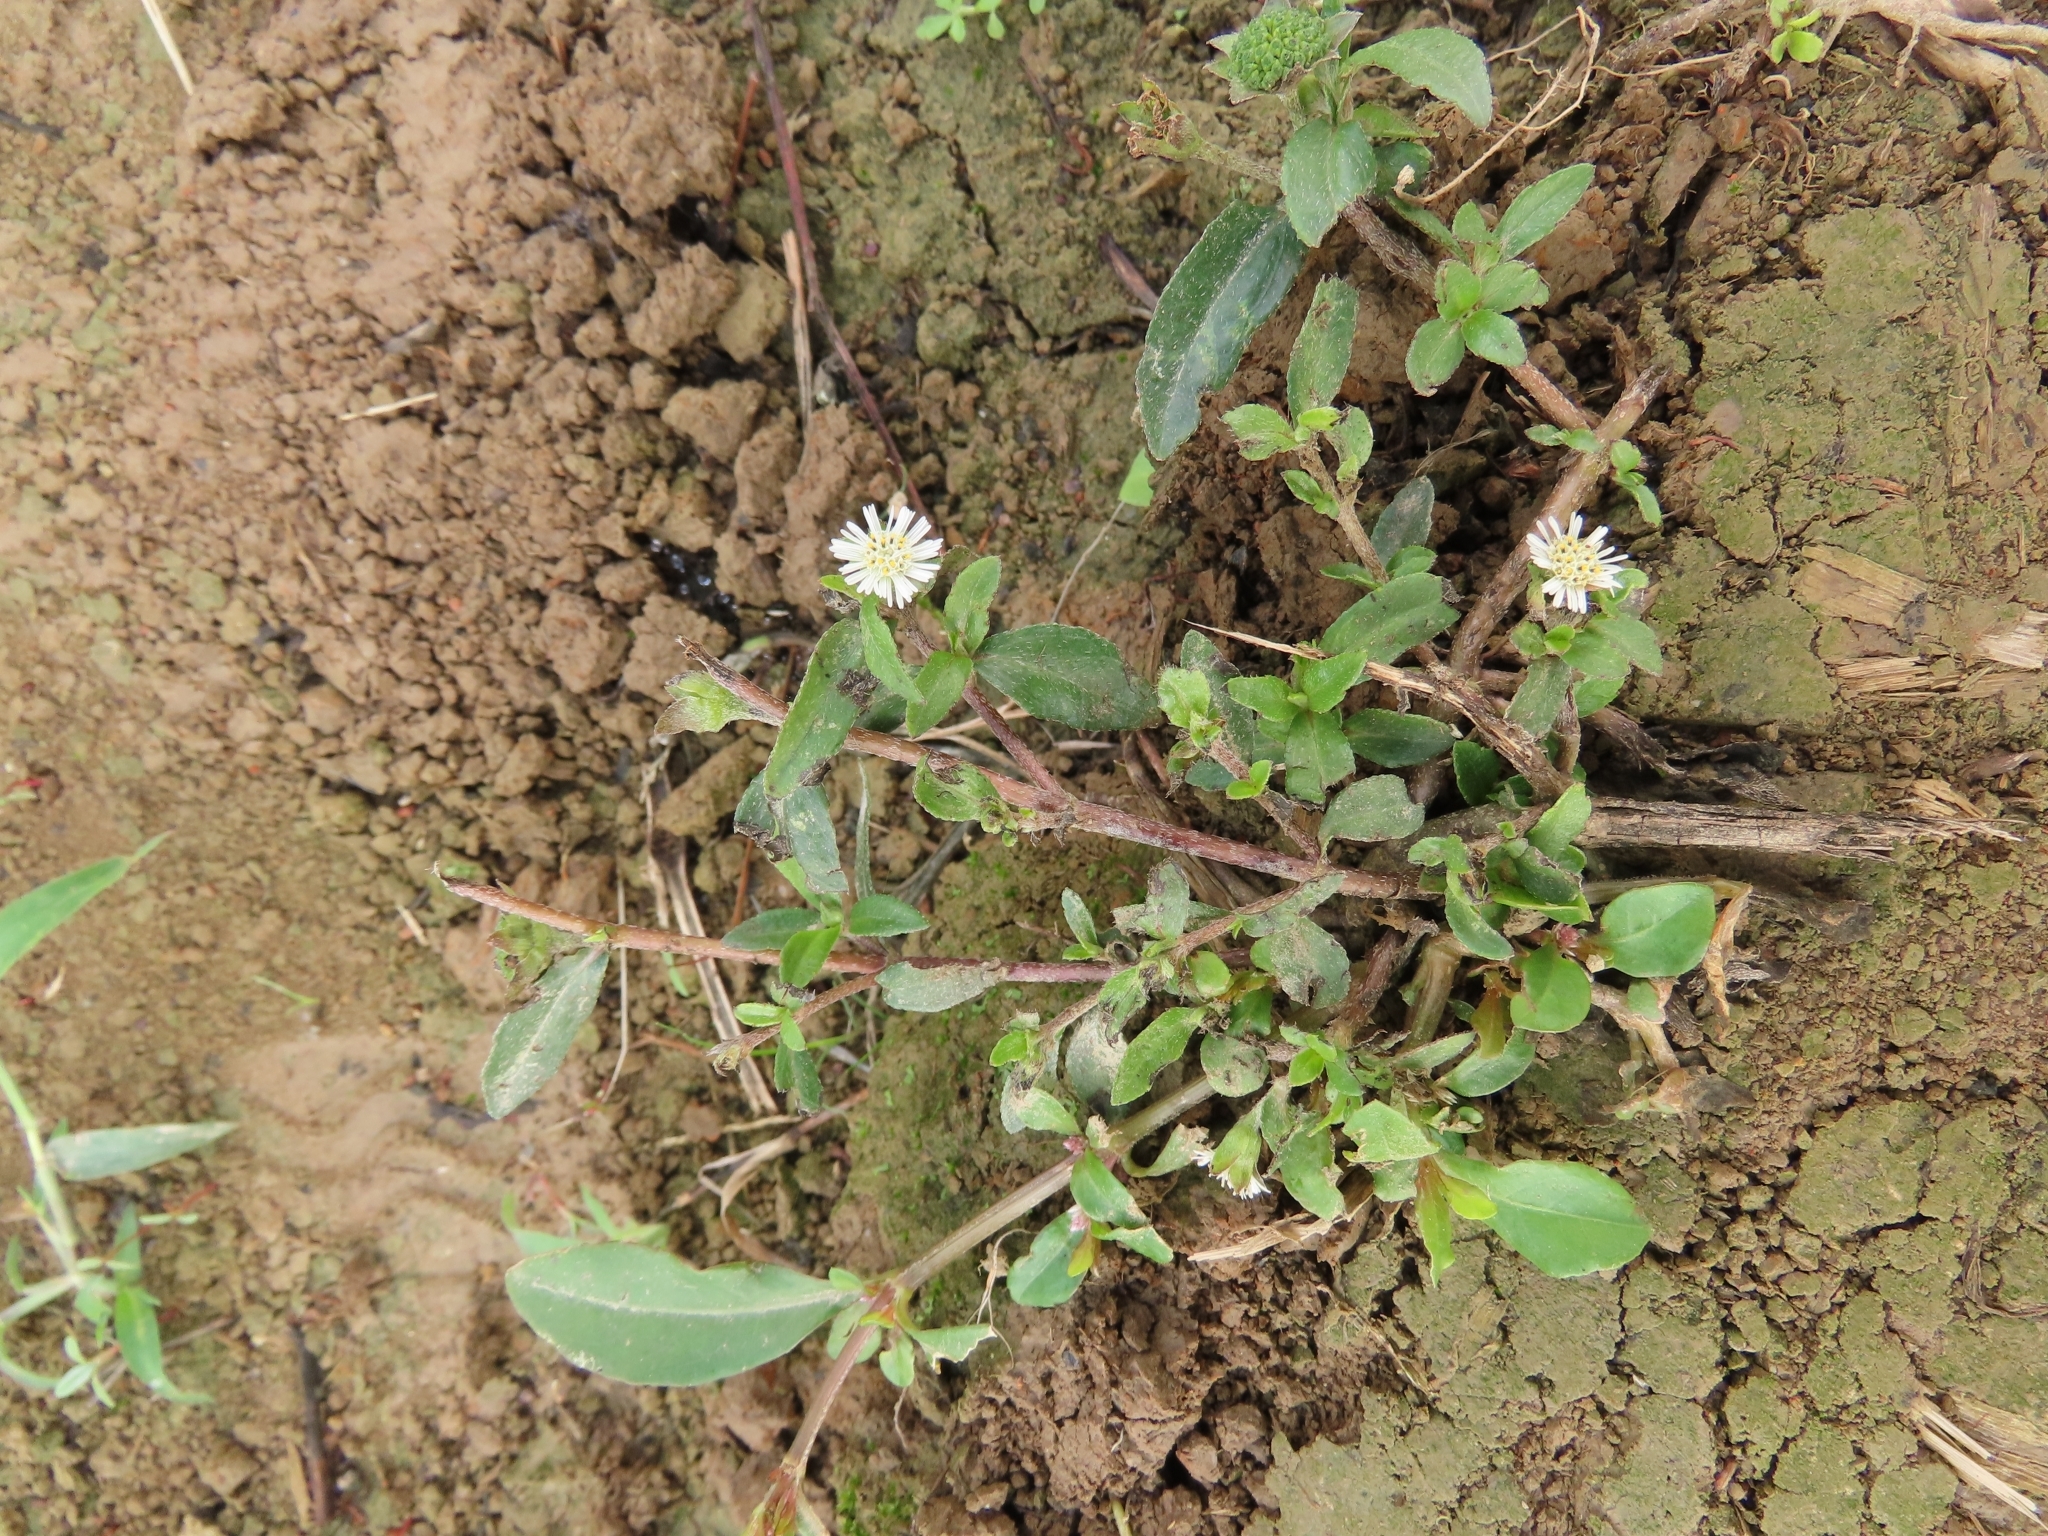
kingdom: Plantae
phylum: Tracheophyta
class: Magnoliopsida
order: Asterales
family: Asteraceae
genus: Eclipta
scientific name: Eclipta prostrata
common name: False daisy
